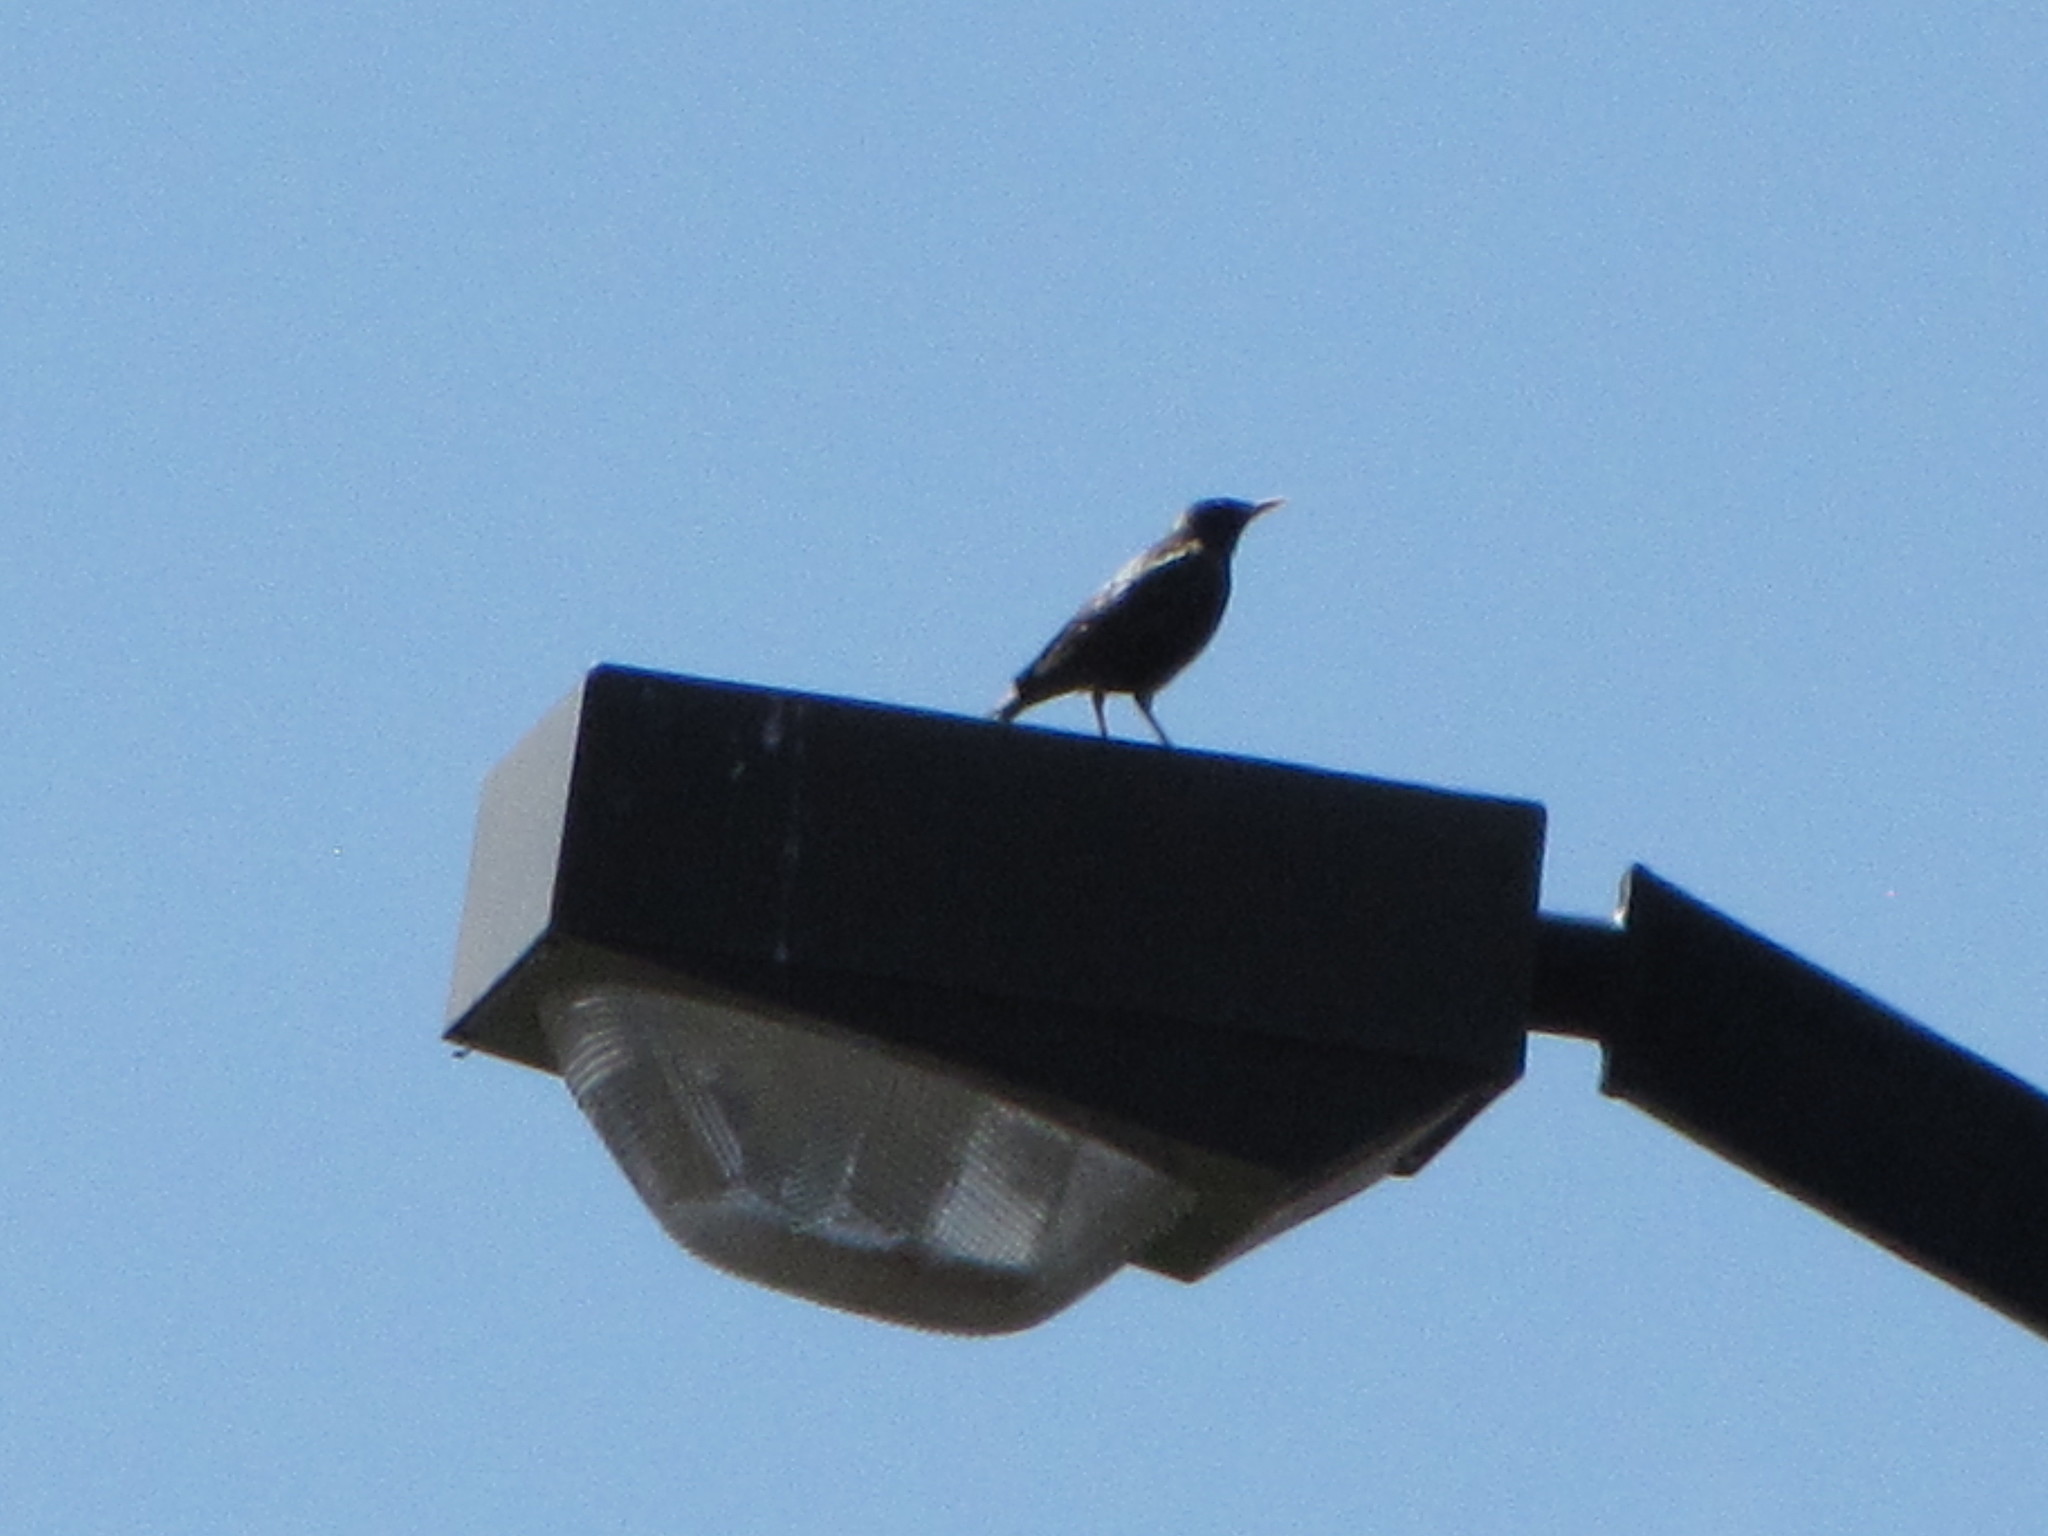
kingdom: Animalia
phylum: Chordata
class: Aves
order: Passeriformes
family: Sturnidae
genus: Sturnus
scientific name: Sturnus vulgaris
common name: Common starling
